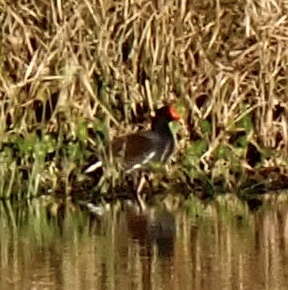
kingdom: Animalia
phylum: Chordata
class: Aves
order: Gruiformes
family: Rallidae
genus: Gallinula
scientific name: Gallinula chloropus
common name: Common moorhen
